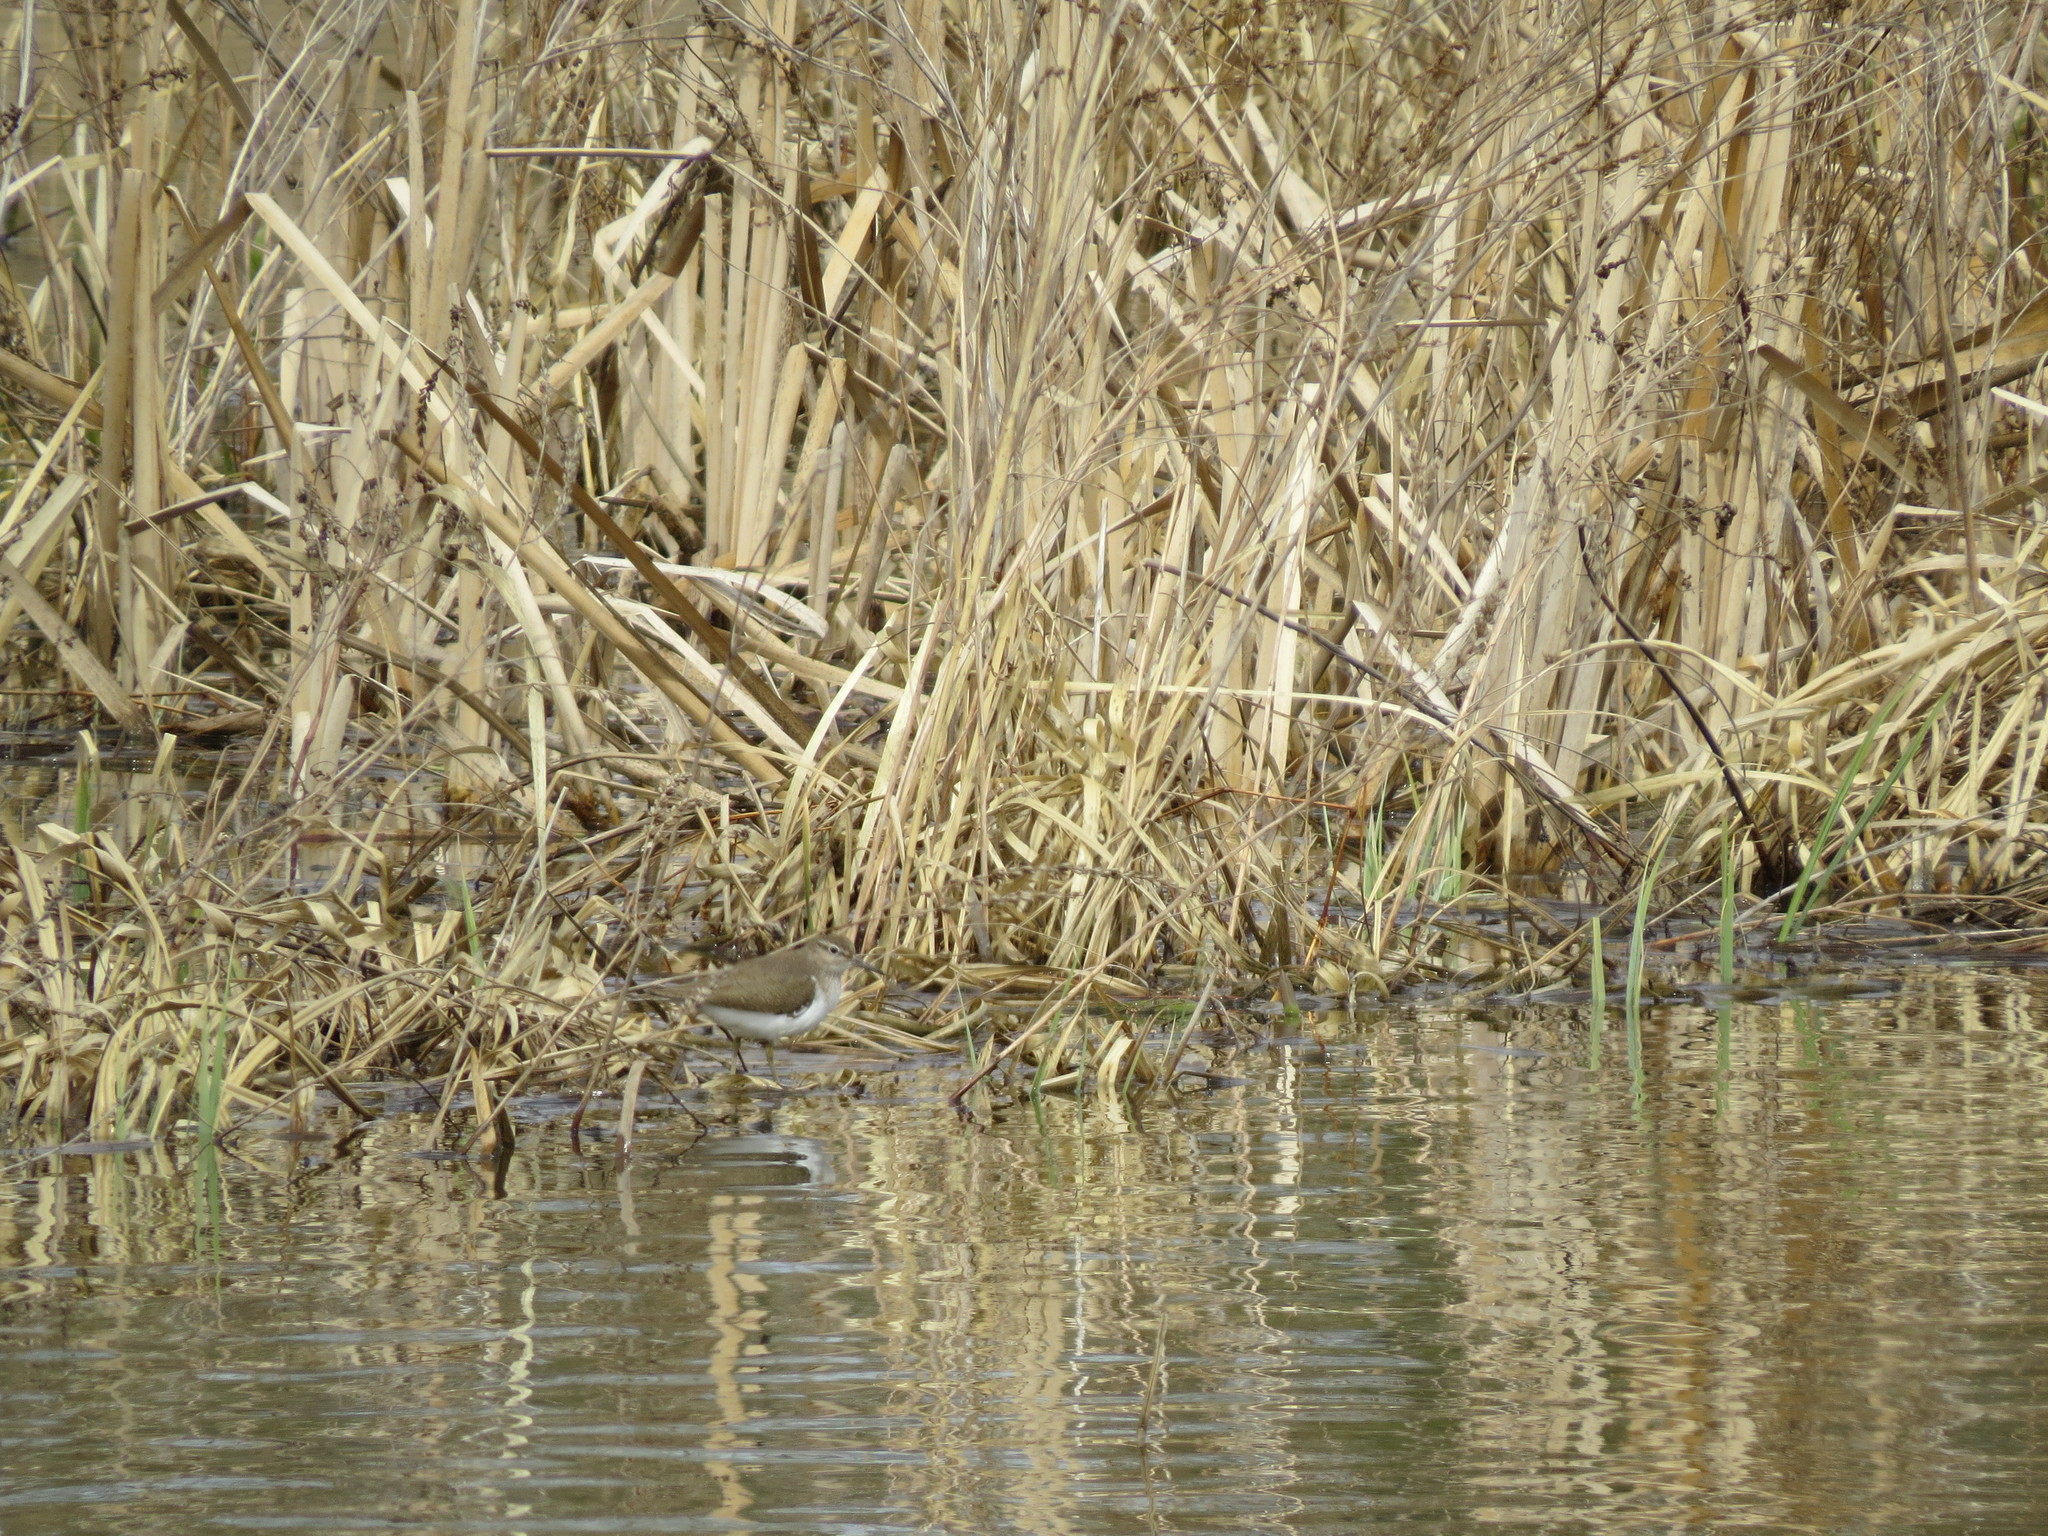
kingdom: Animalia
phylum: Chordata
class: Aves
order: Charadriiformes
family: Scolopacidae
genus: Actitis
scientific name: Actitis hypoleucos
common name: Common sandpiper
